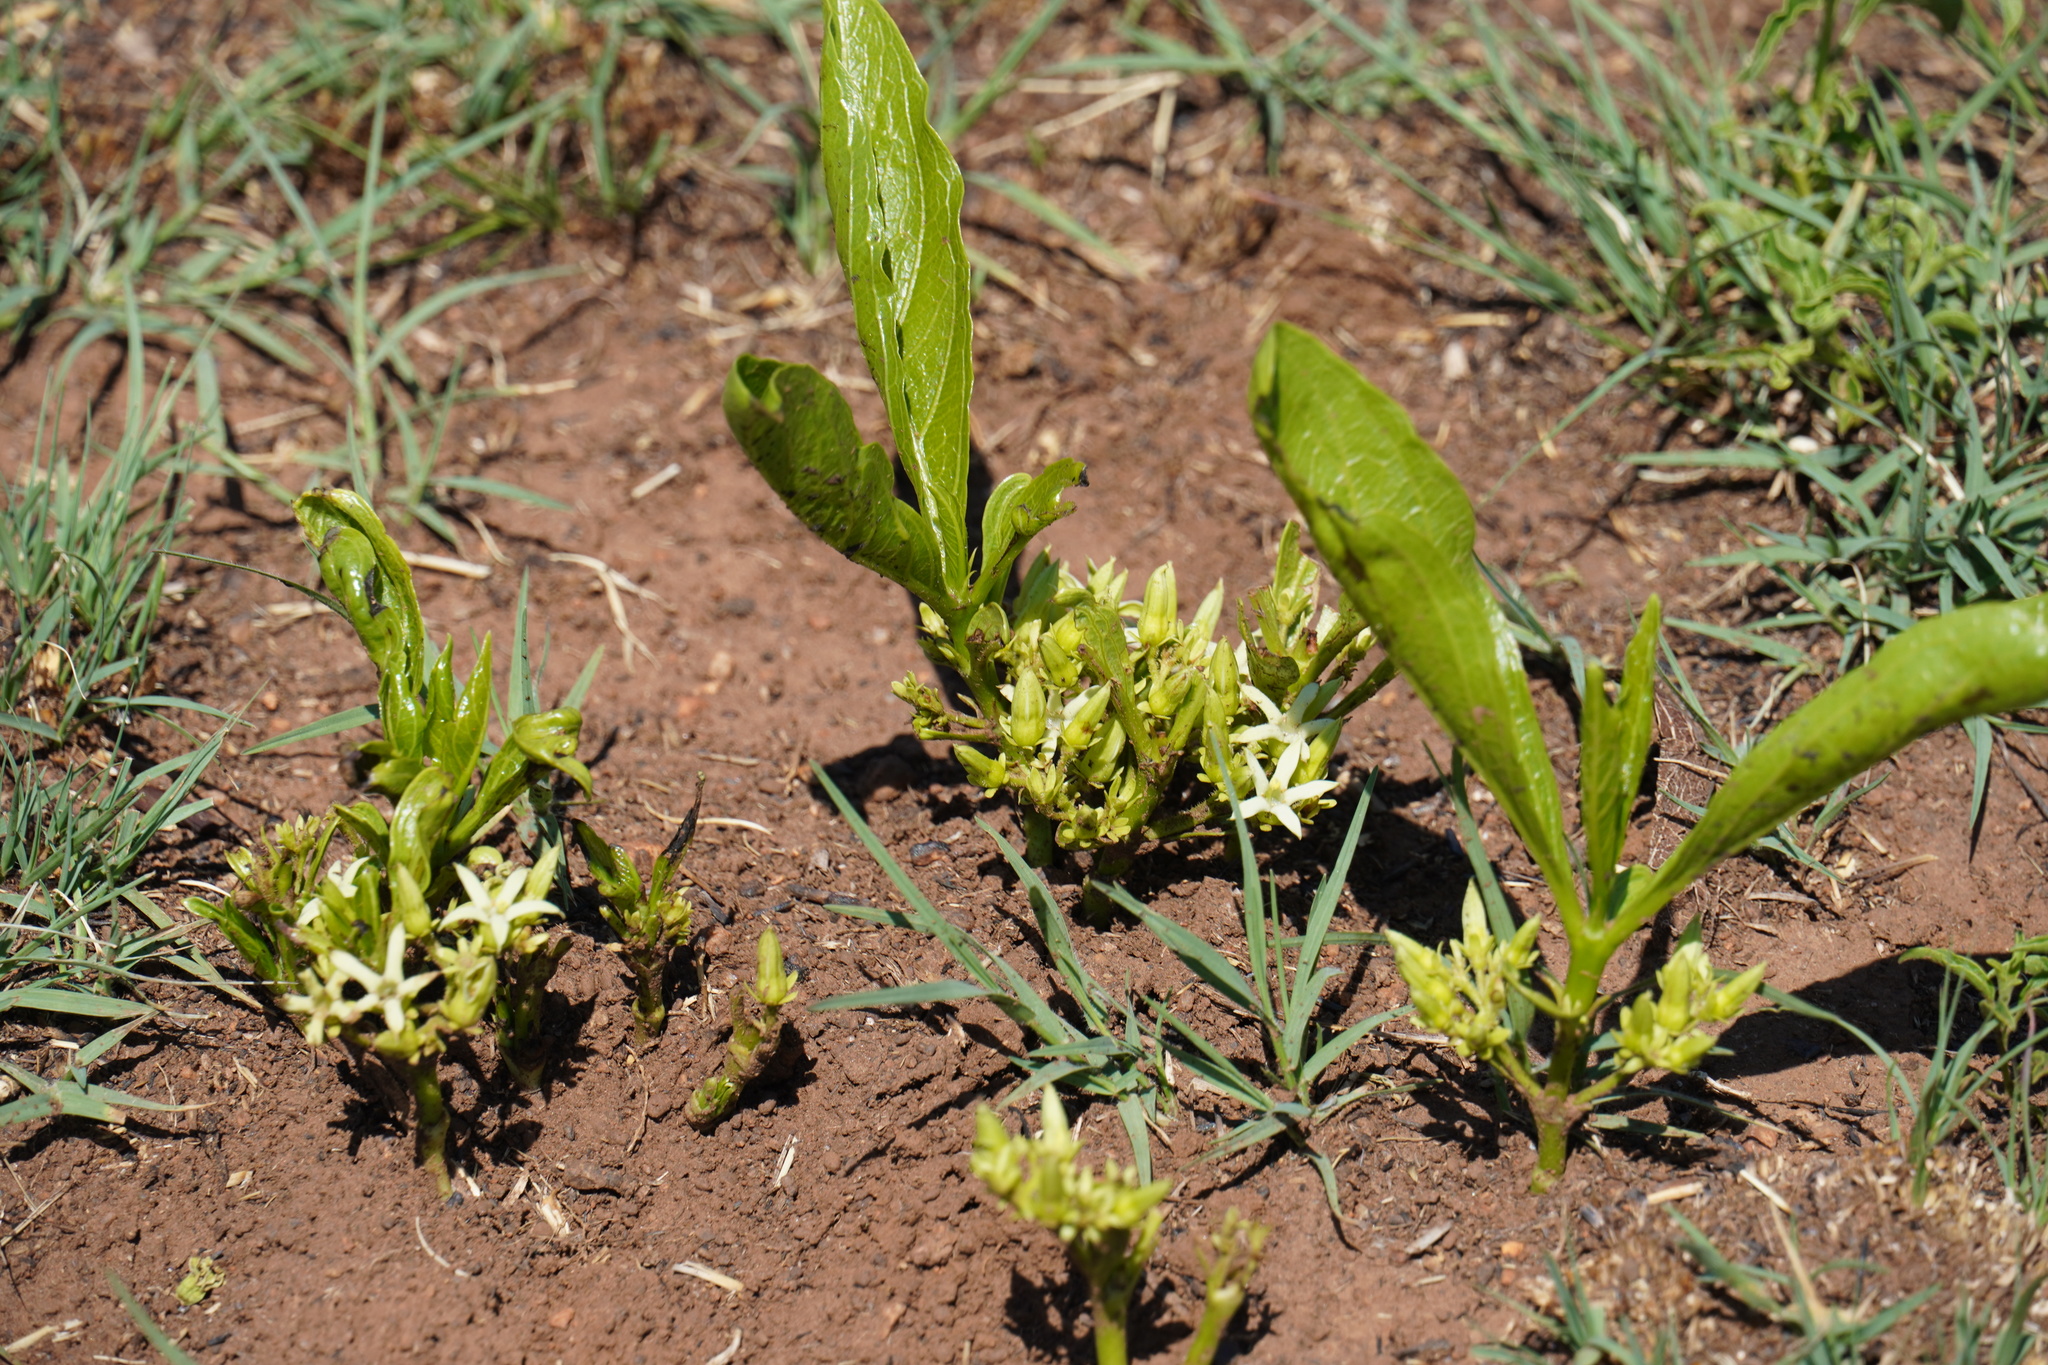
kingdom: Plantae
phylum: Tracheophyta
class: Magnoliopsida
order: Gentianales
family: Rubiaceae
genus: Pygmaeothamnus
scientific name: Pygmaeothamnus zeyheri
